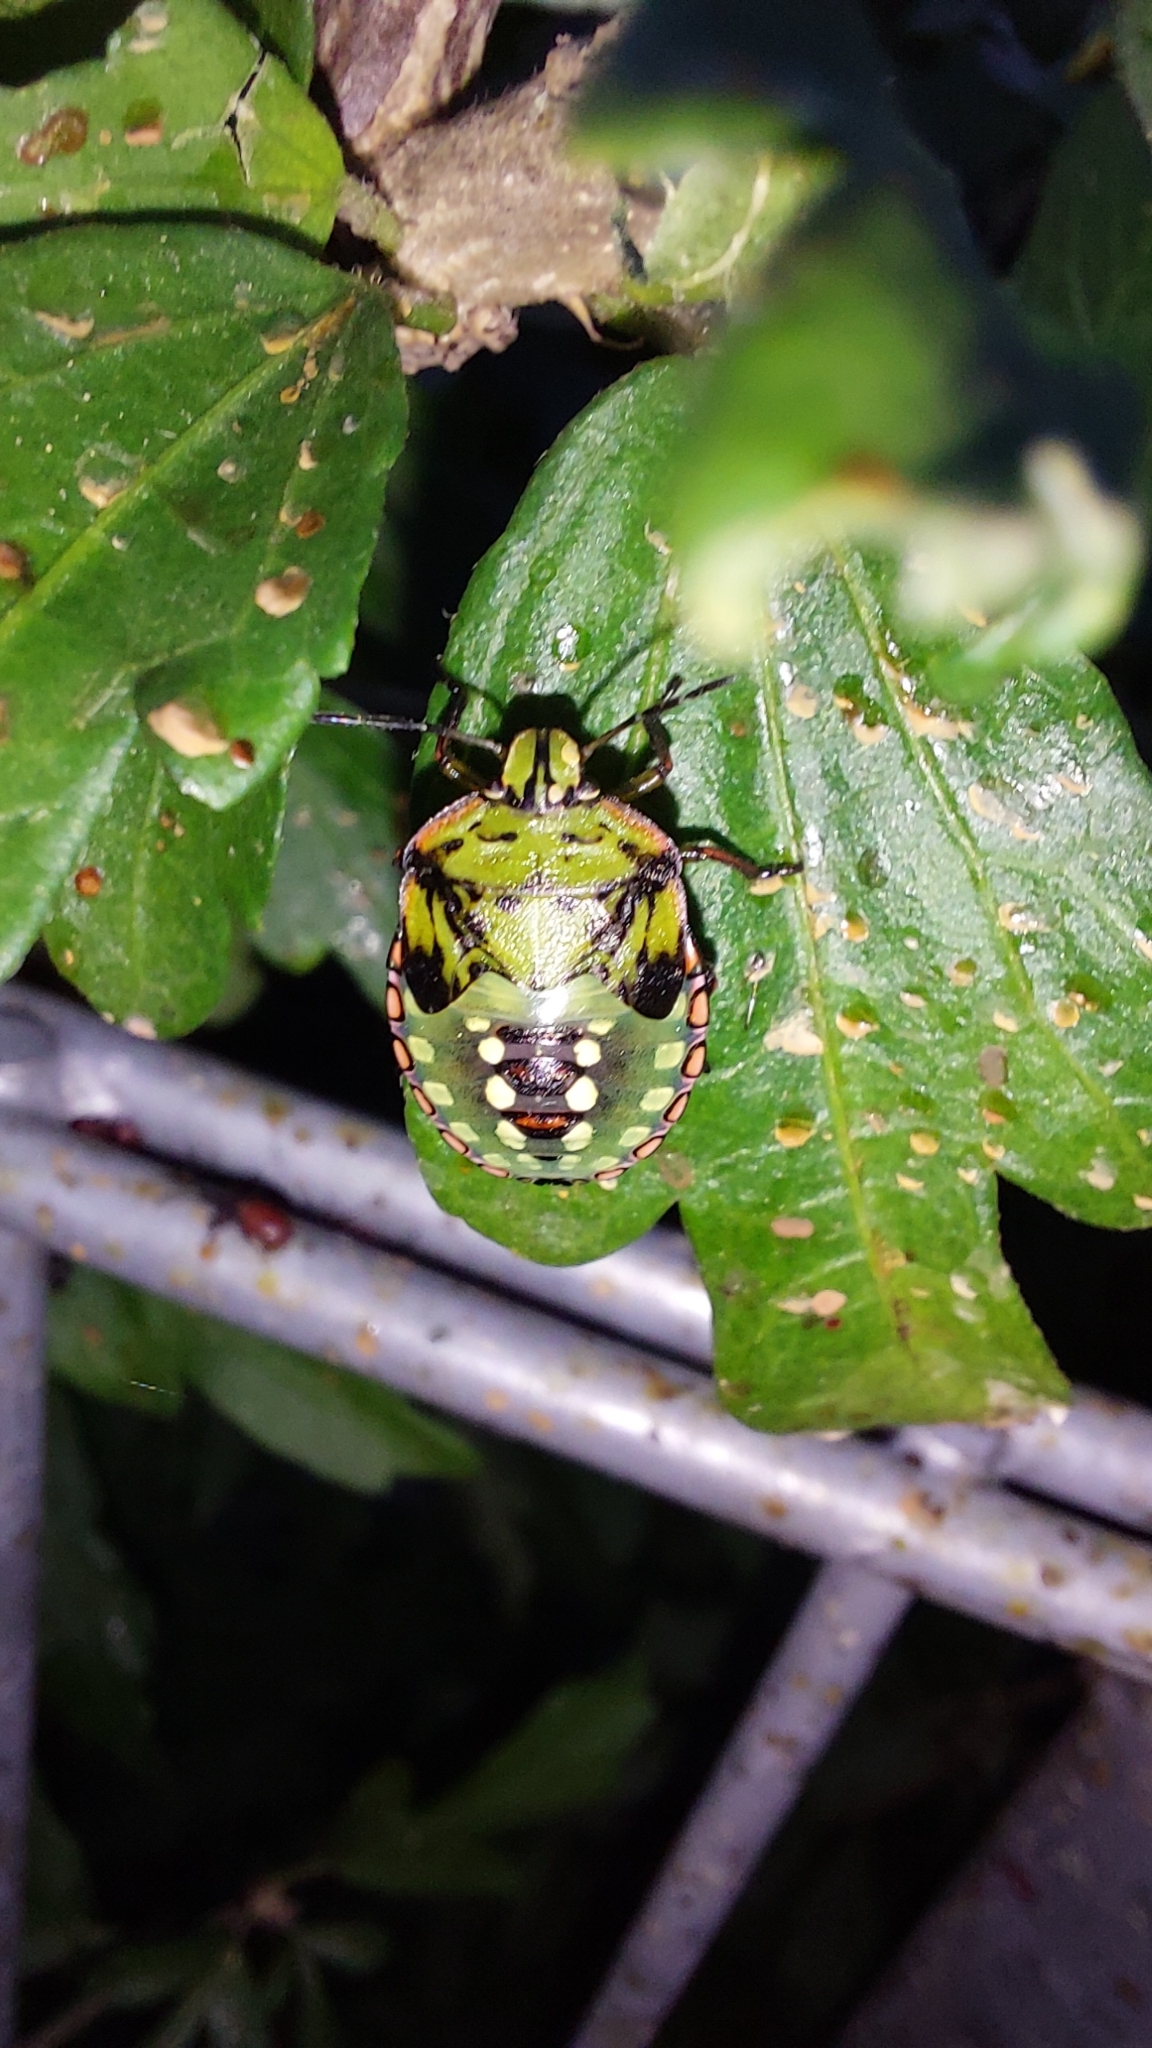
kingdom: Animalia
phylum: Arthropoda
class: Insecta
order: Hemiptera
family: Pentatomidae
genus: Nezara
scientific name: Nezara viridula
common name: Southern green stink bug
